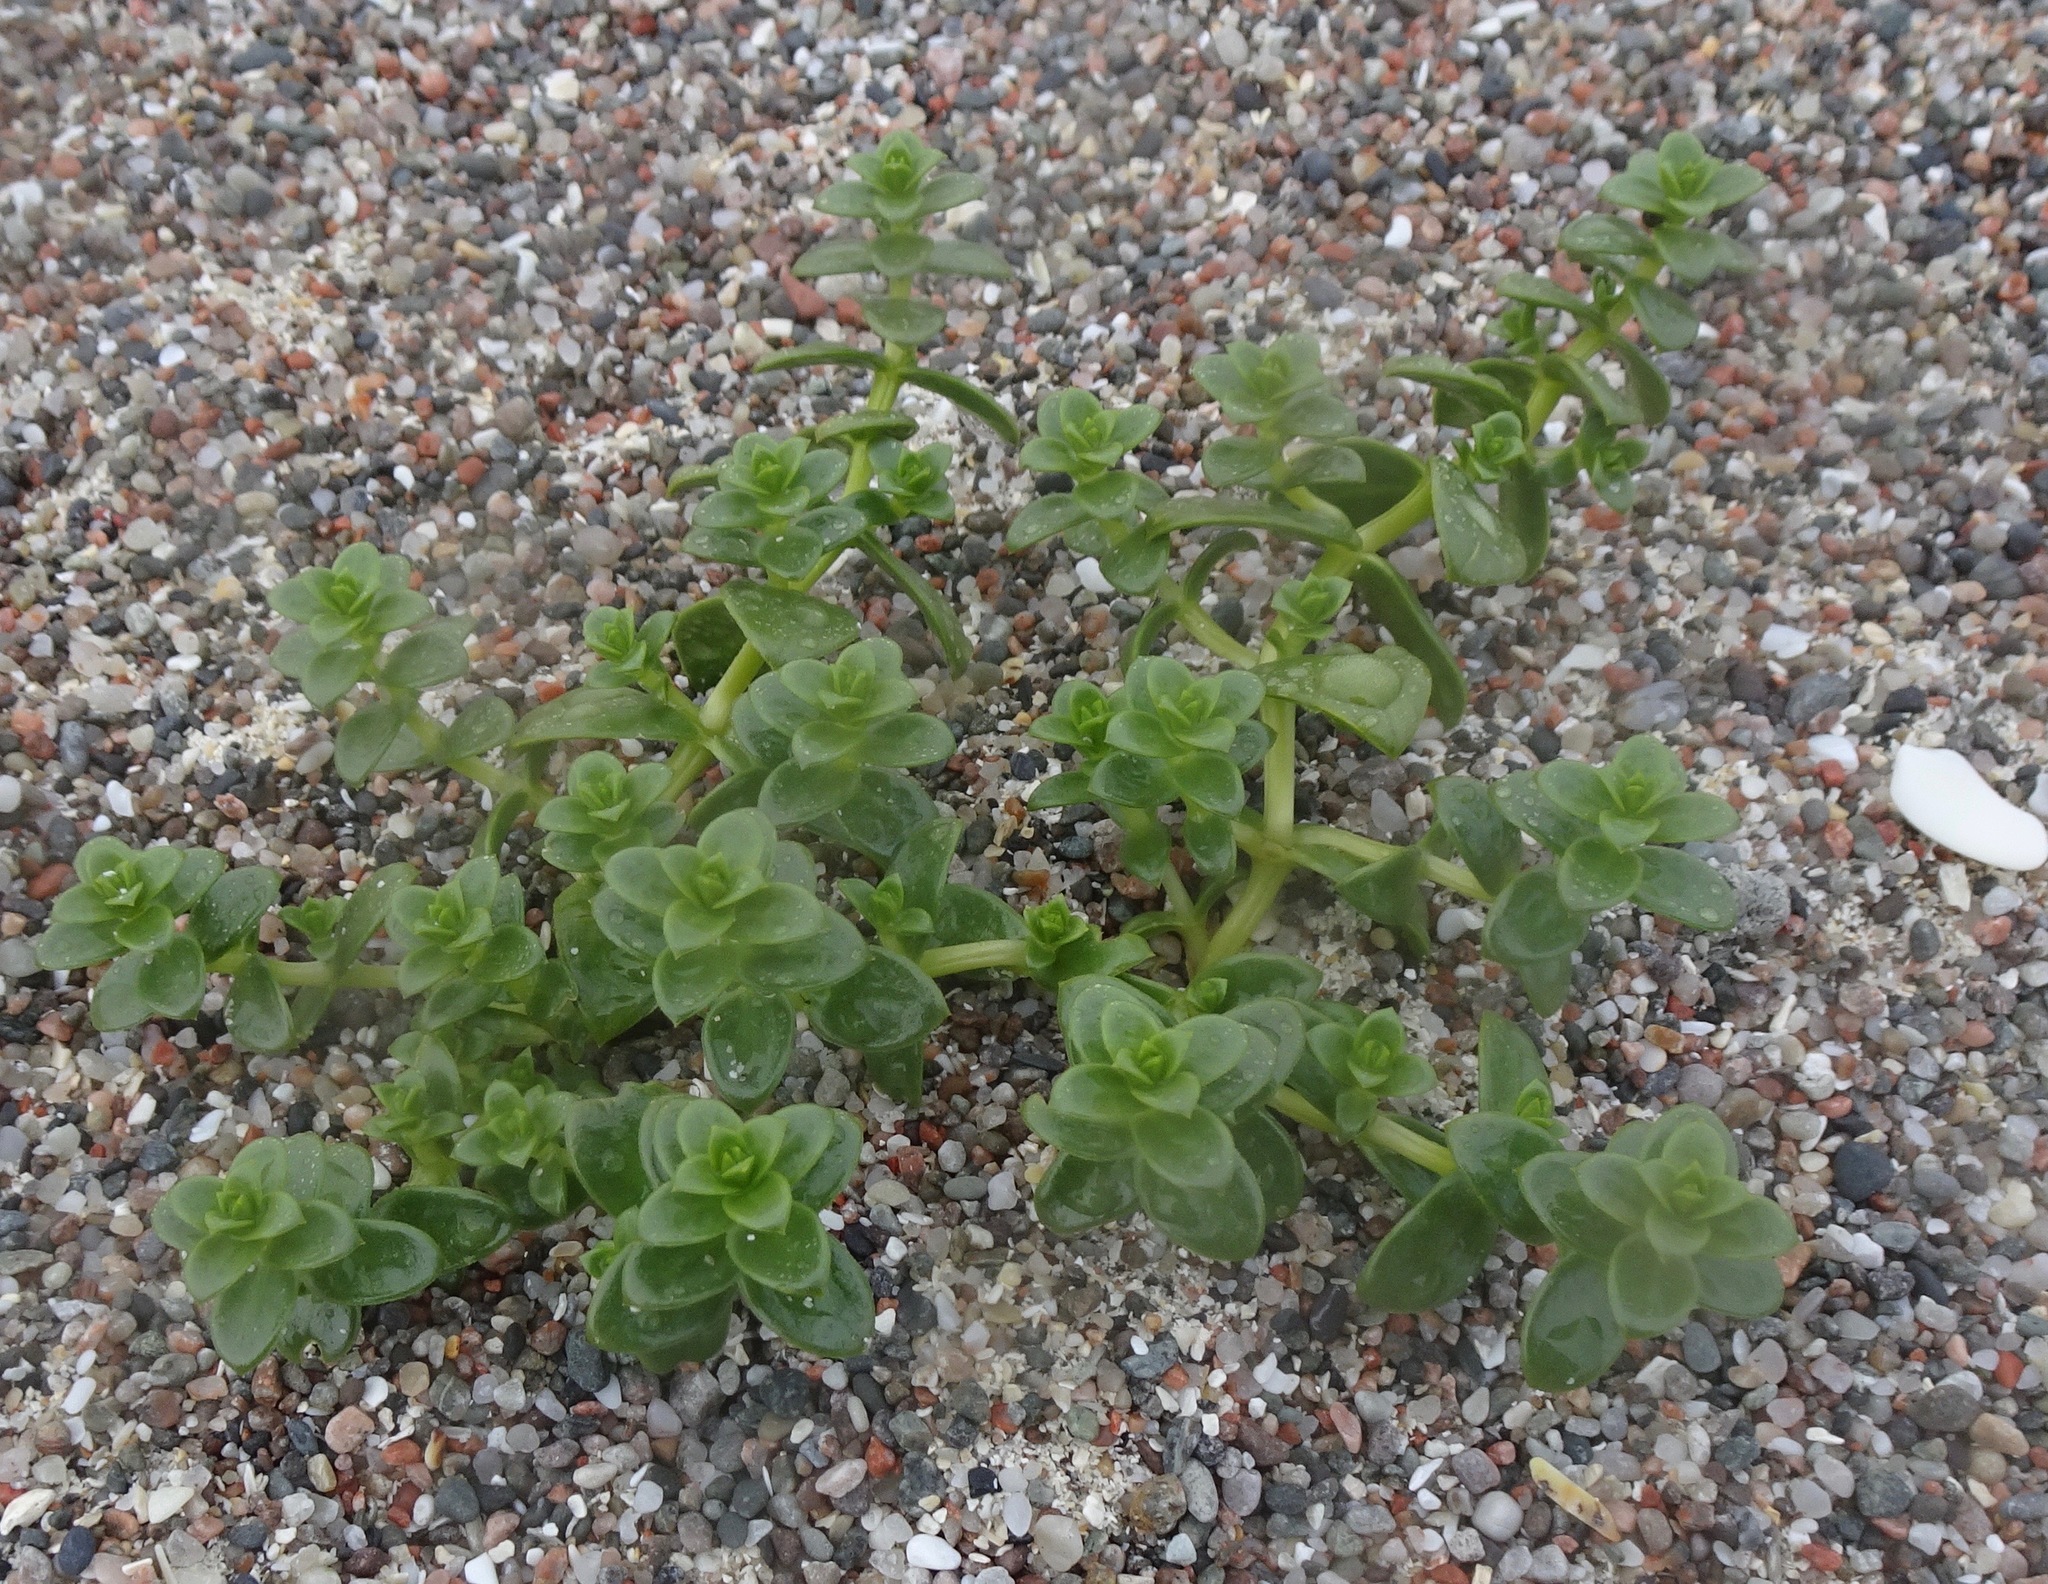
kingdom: Plantae
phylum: Tracheophyta
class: Magnoliopsida
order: Caryophyllales
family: Caryophyllaceae
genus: Honckenya
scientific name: Honckenya peploides
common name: Sea sandwort
